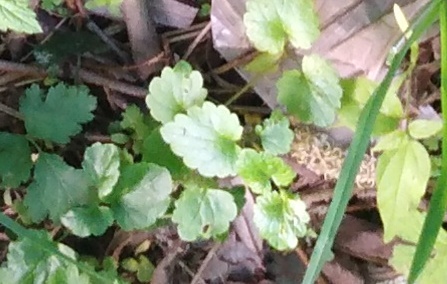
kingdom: Plantae
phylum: Tracheophyta
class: Magnoliopsida
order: Lamiales
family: Lamiaceae
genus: Glechoma
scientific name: Glechoma hederacea
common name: Ground ivy
